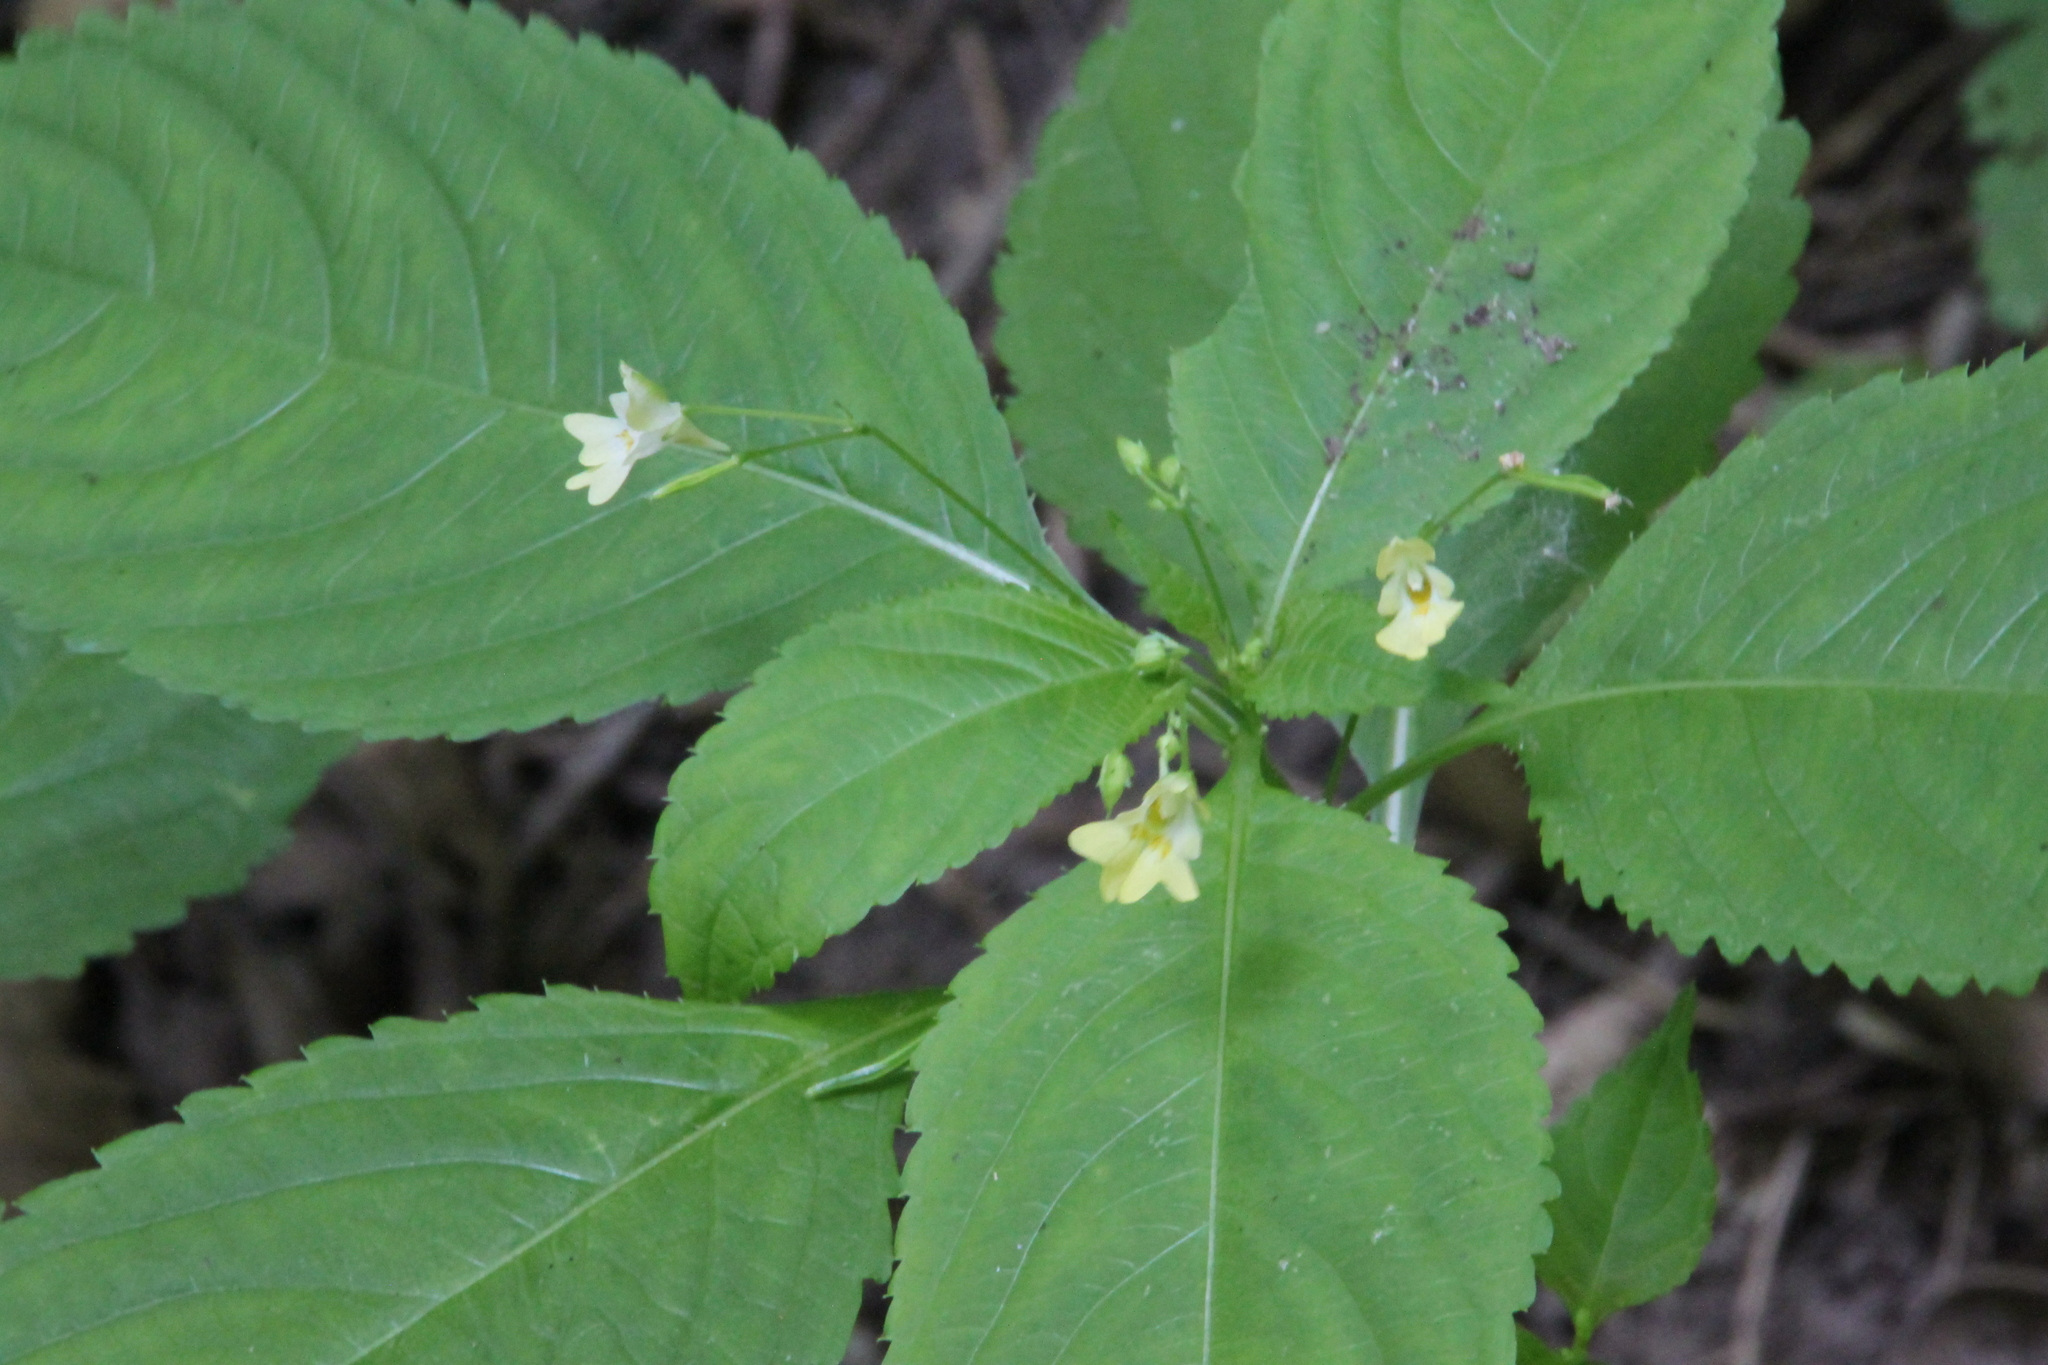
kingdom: Plantae
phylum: Tracheophyta
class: Magnoliopsida
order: Ericales
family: Balsaminaceae
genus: Impatiens
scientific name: Impatiens parviflora
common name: Small balsam
